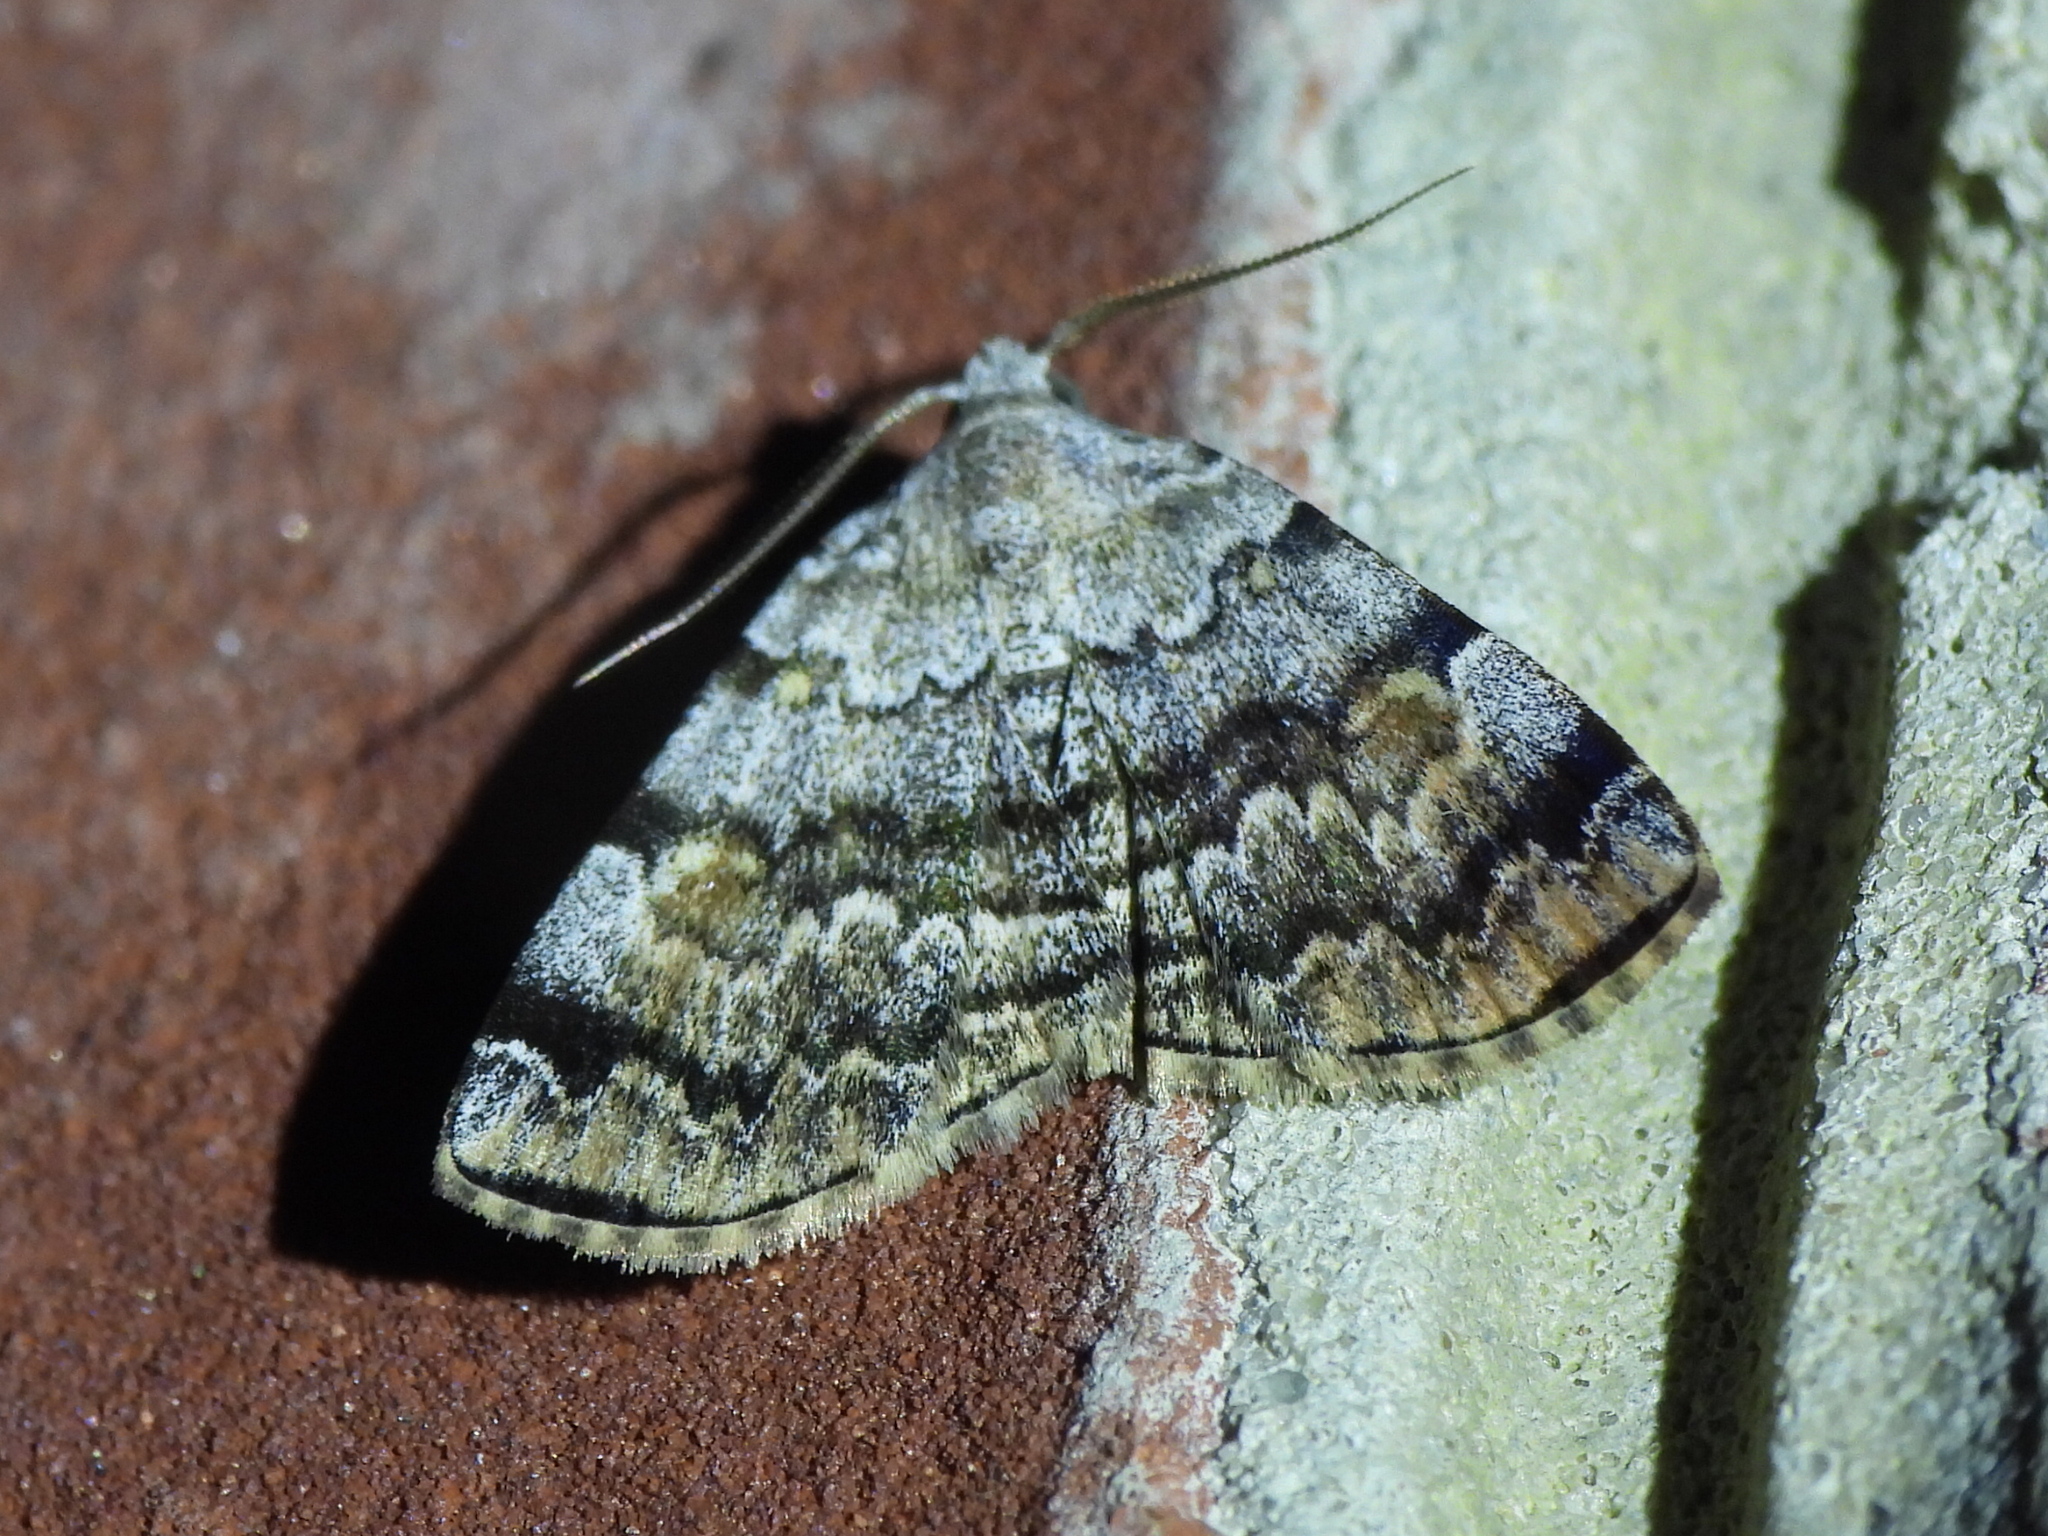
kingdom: Animalia
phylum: Arthropoda
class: Insecta
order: Lepidoptera
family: Erebidae
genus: Idia
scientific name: Idia americalis
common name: American idia moth
